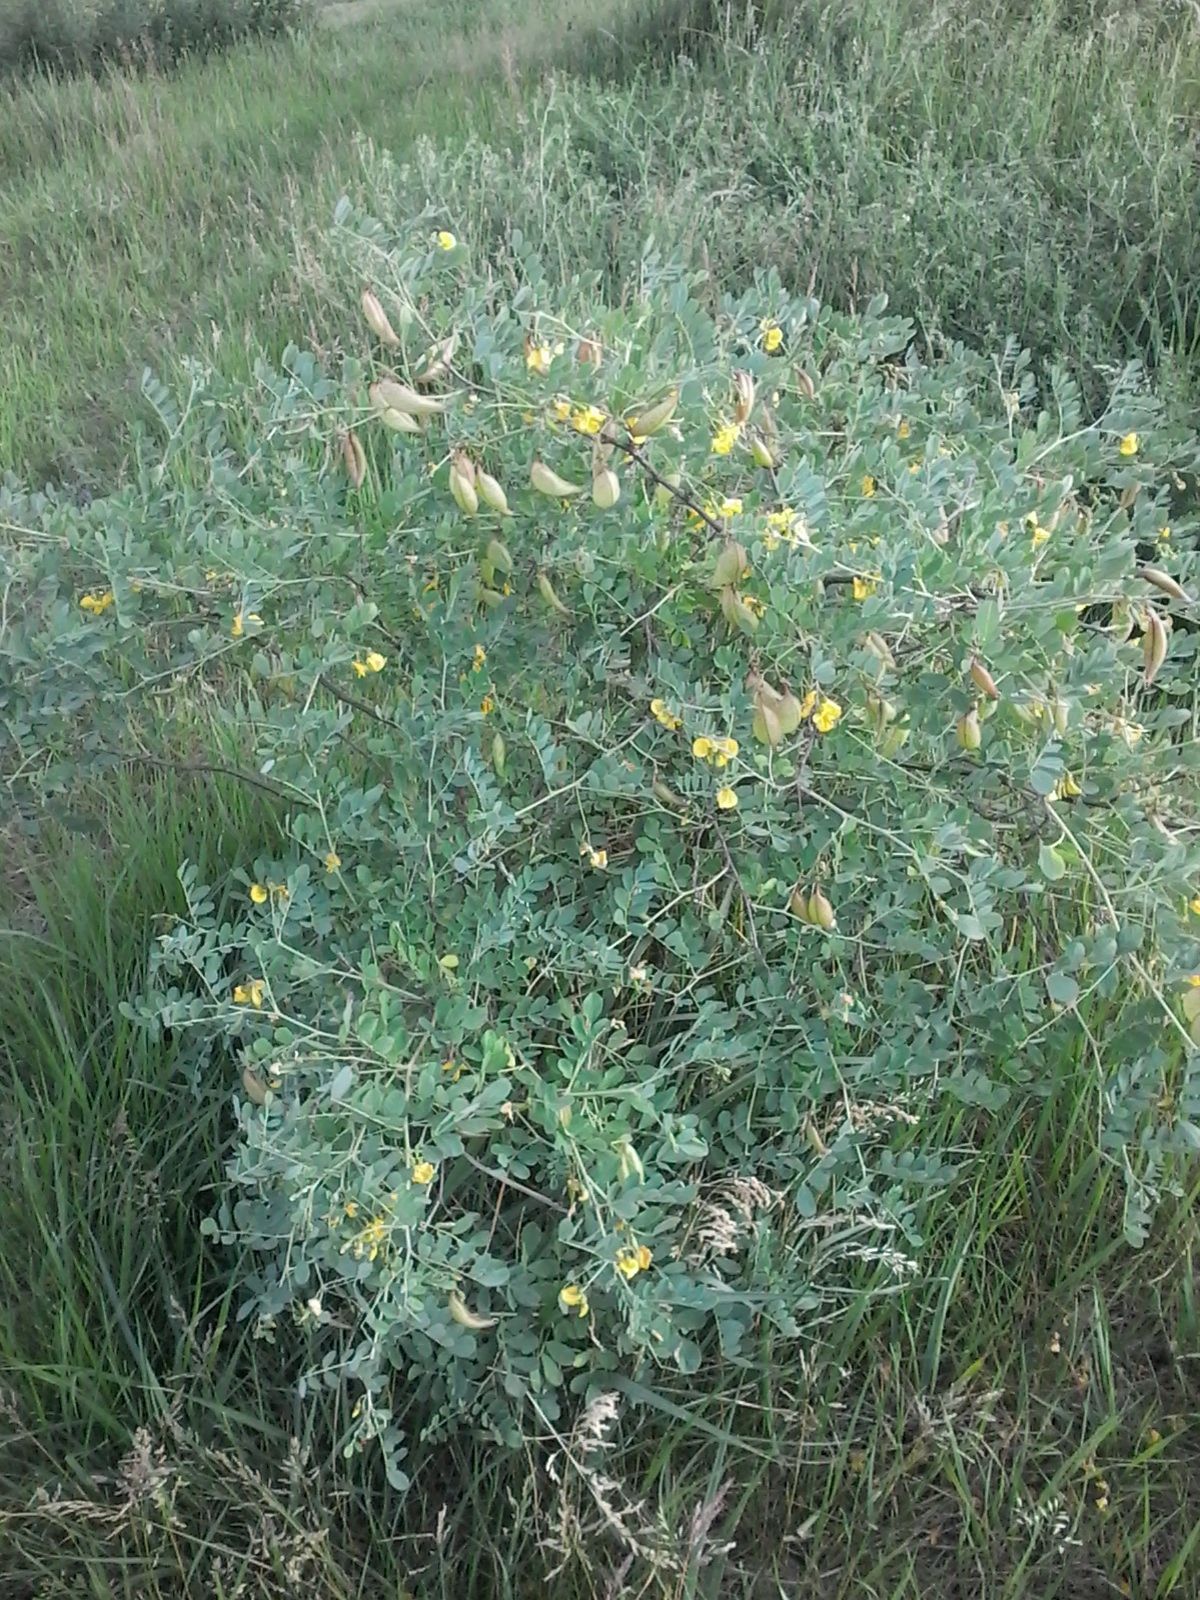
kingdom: Plantae
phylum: Tracheophyta
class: Magnoliopsida
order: Fabales
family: Fabaceae
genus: Colutea
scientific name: Colutea arborescens
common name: Bladder-senna
